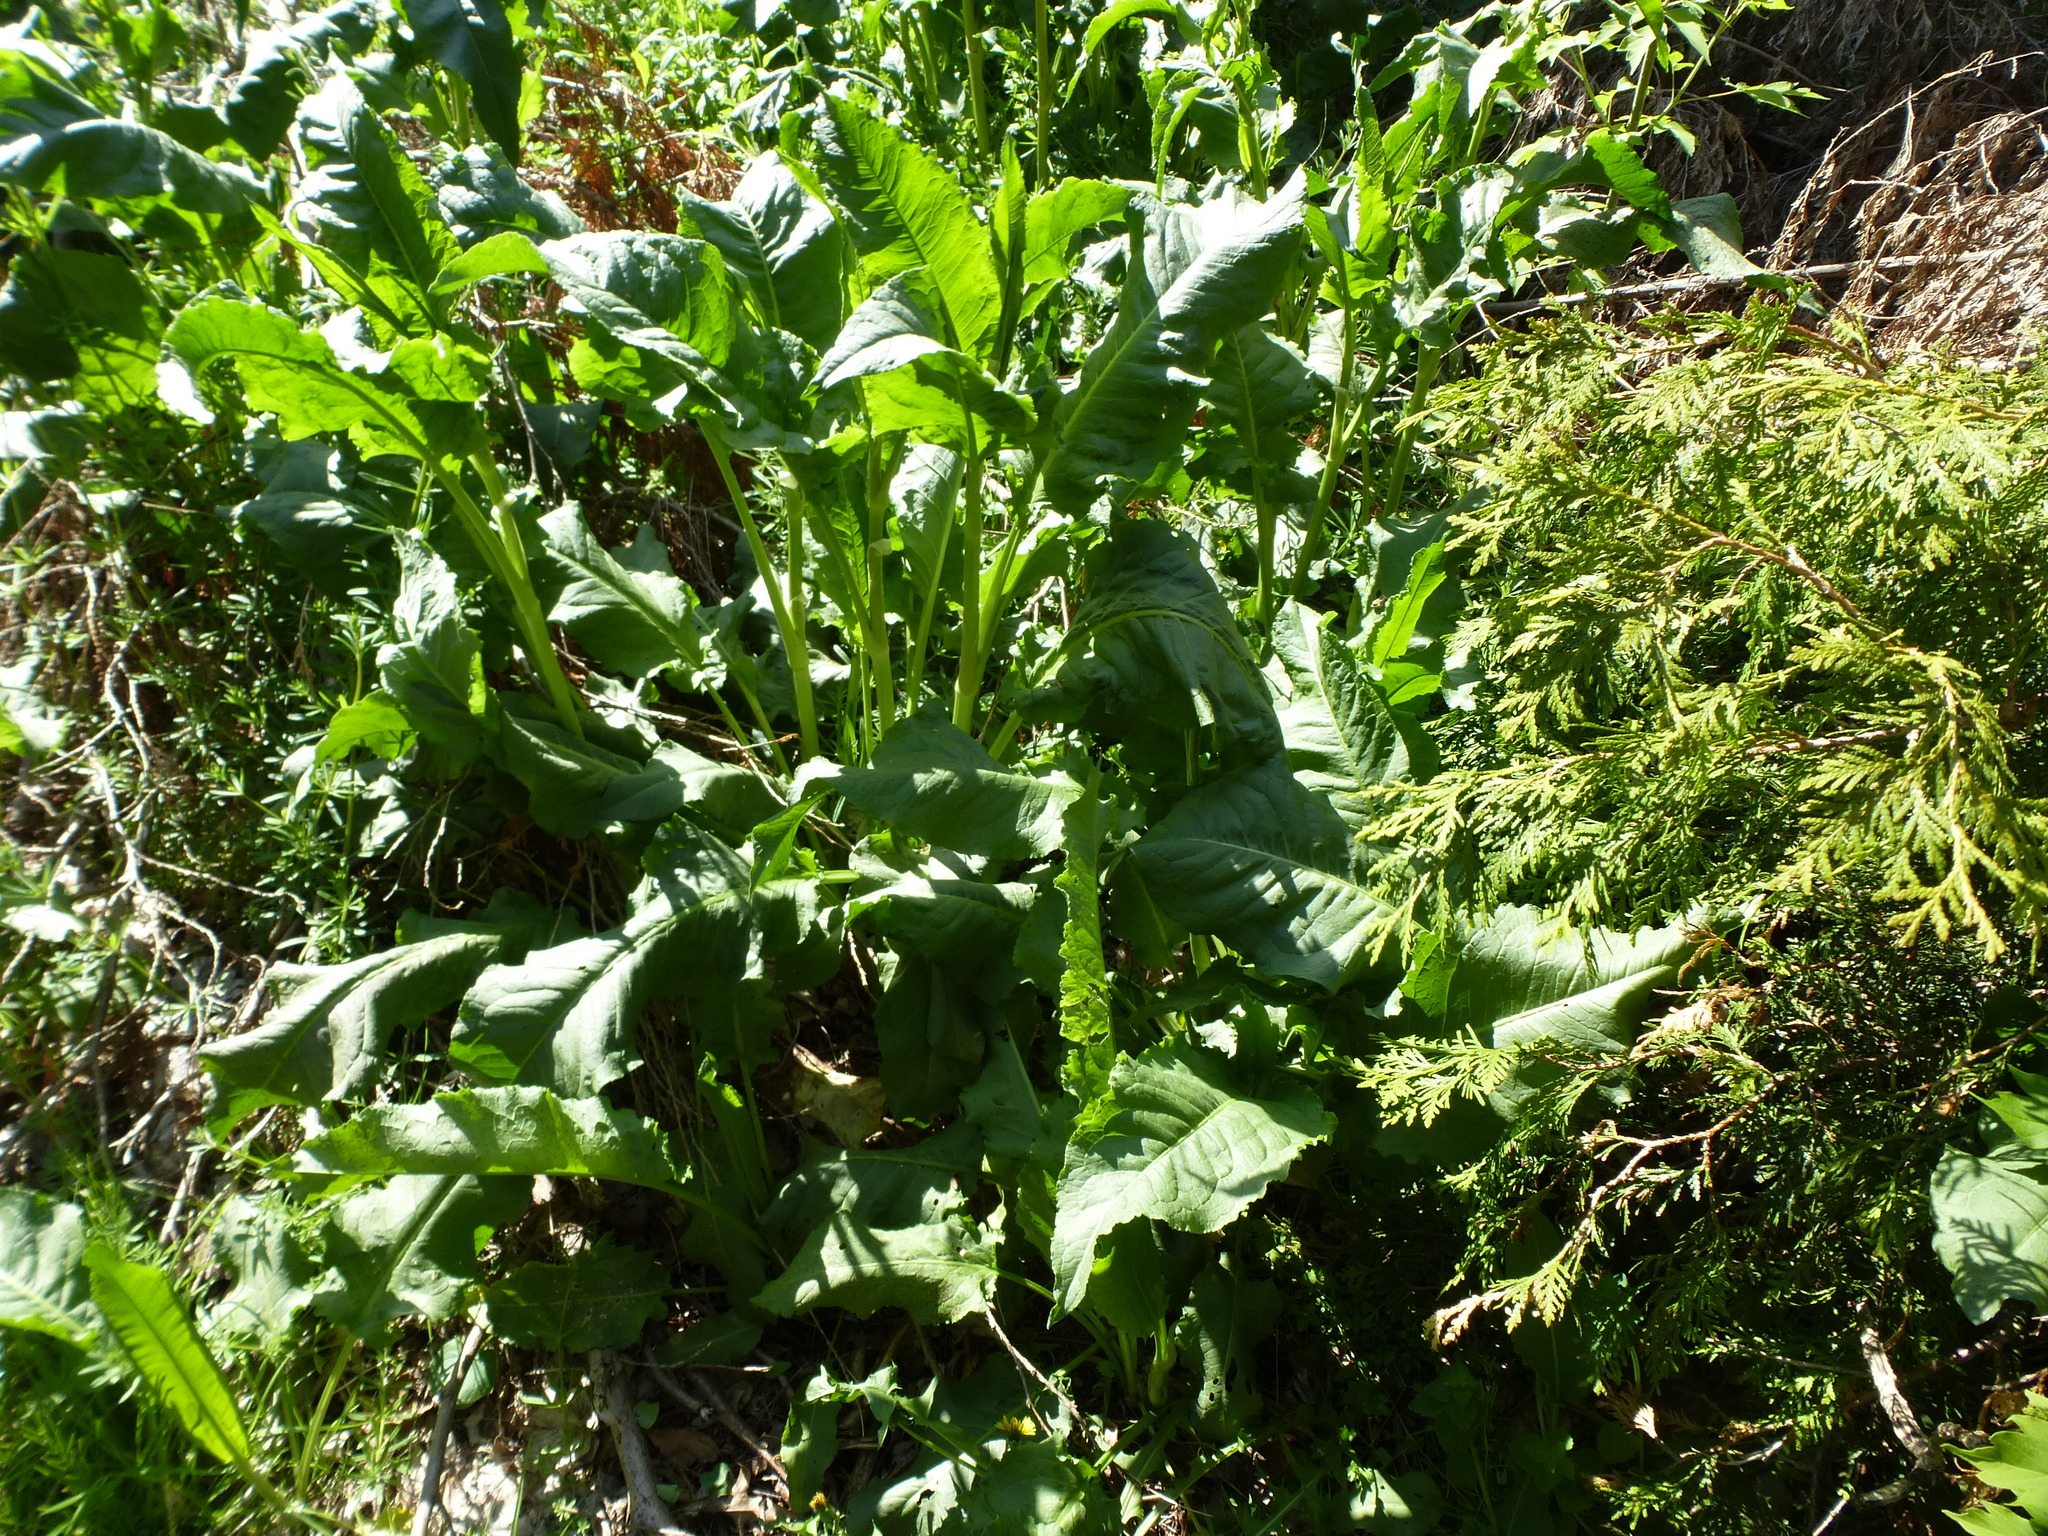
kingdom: Plantae
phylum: Tracheophyta
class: Magnoliopsida
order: Caryophyllales
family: Polygonaceae
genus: Rumex
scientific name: Rumex crispus
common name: Curled dock
